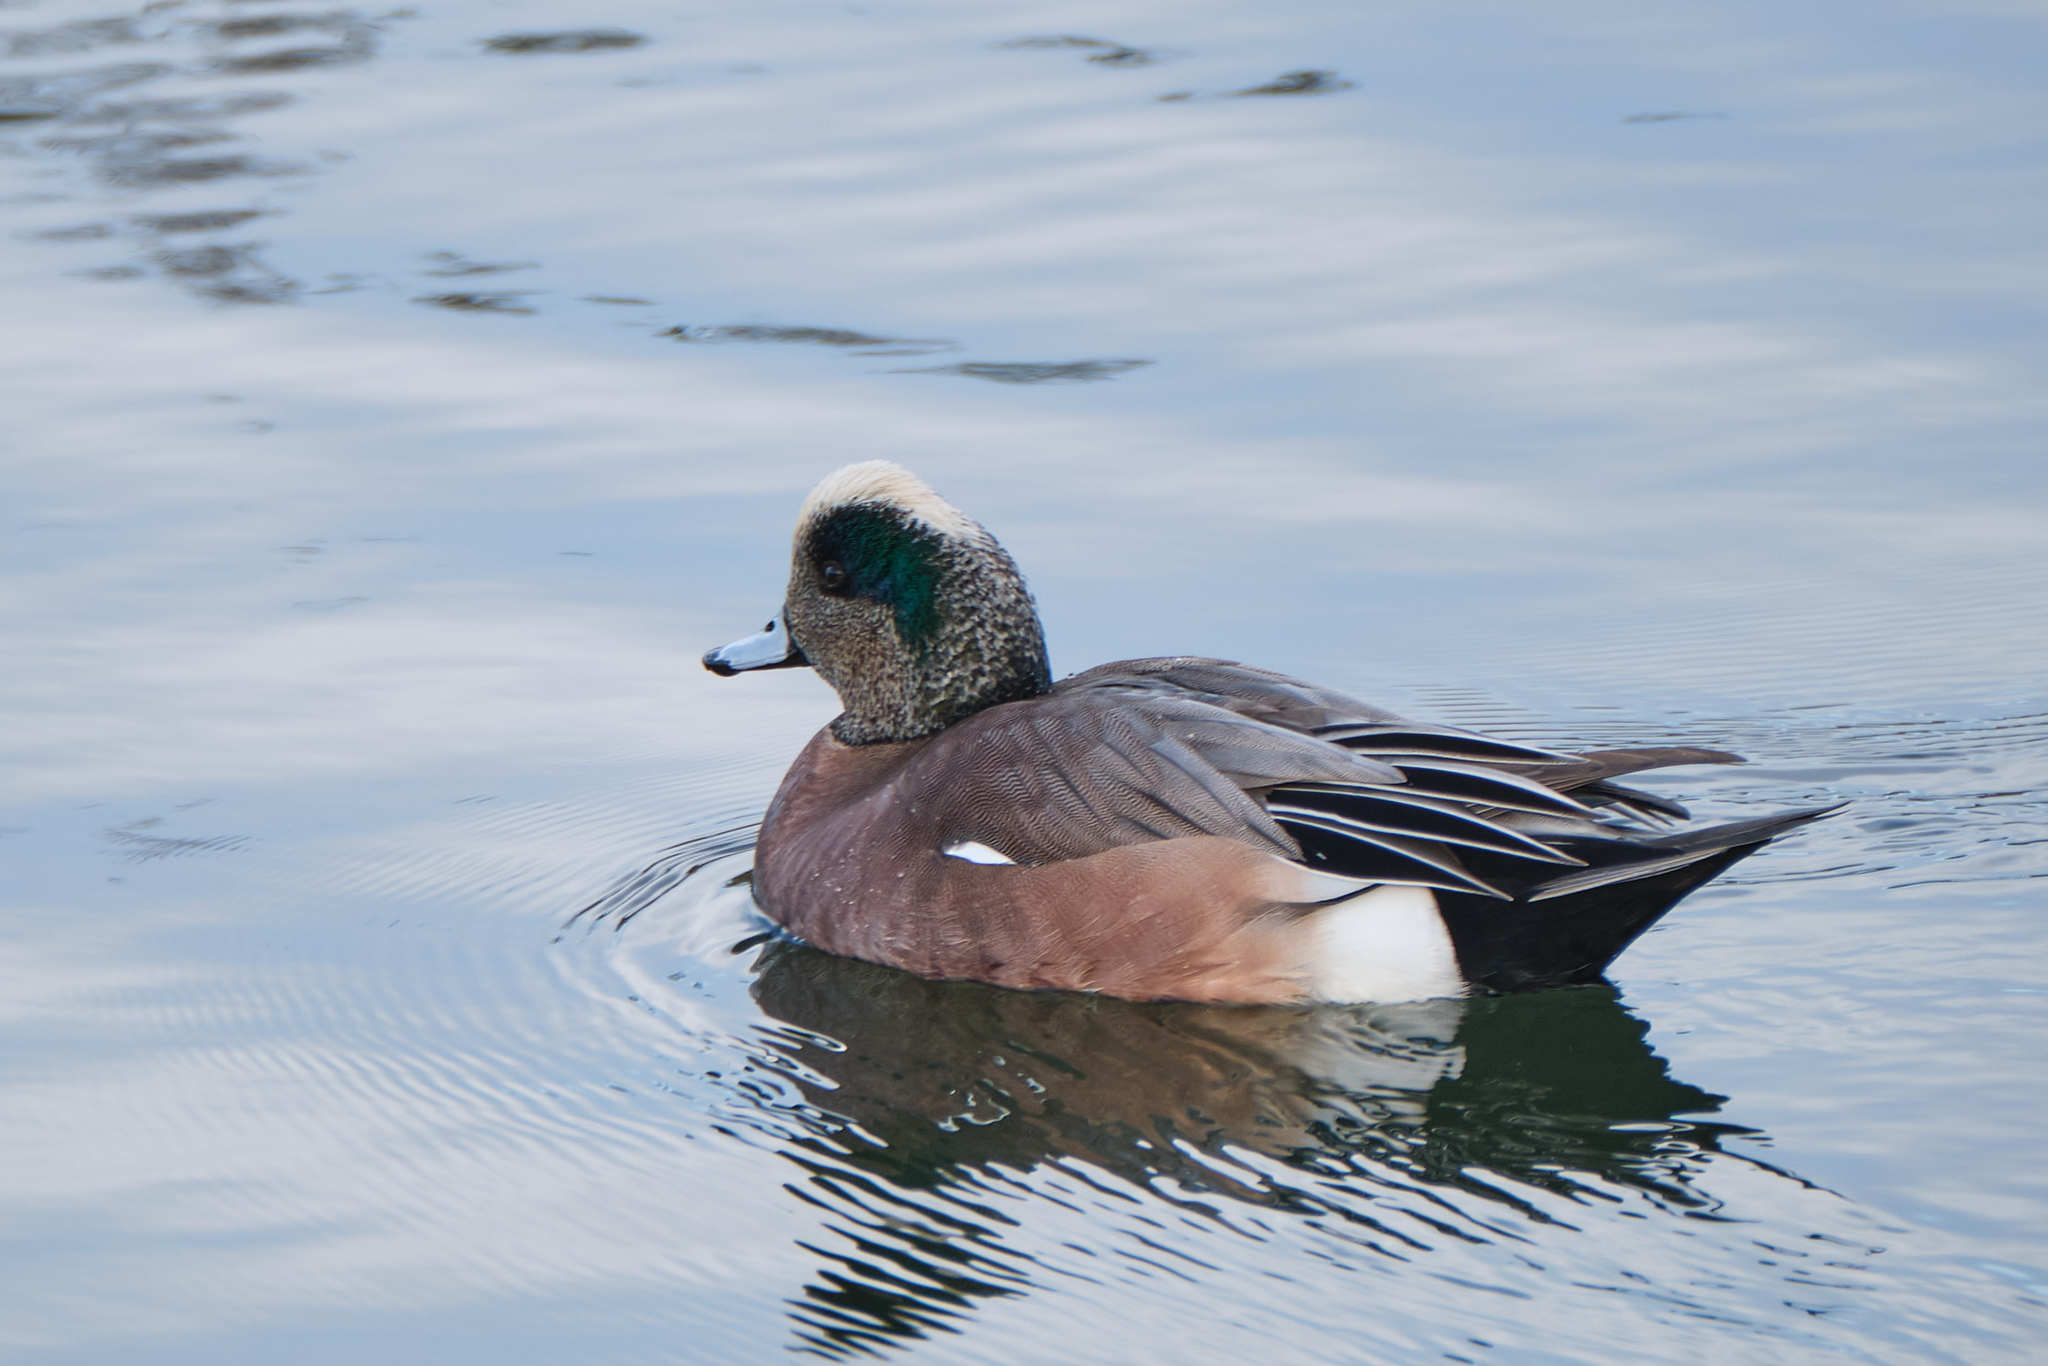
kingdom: Animalia
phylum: Chordata
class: Aves
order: Anseriformes
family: Anatidae
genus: Mareca
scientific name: Mareca americana
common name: American wigeon
